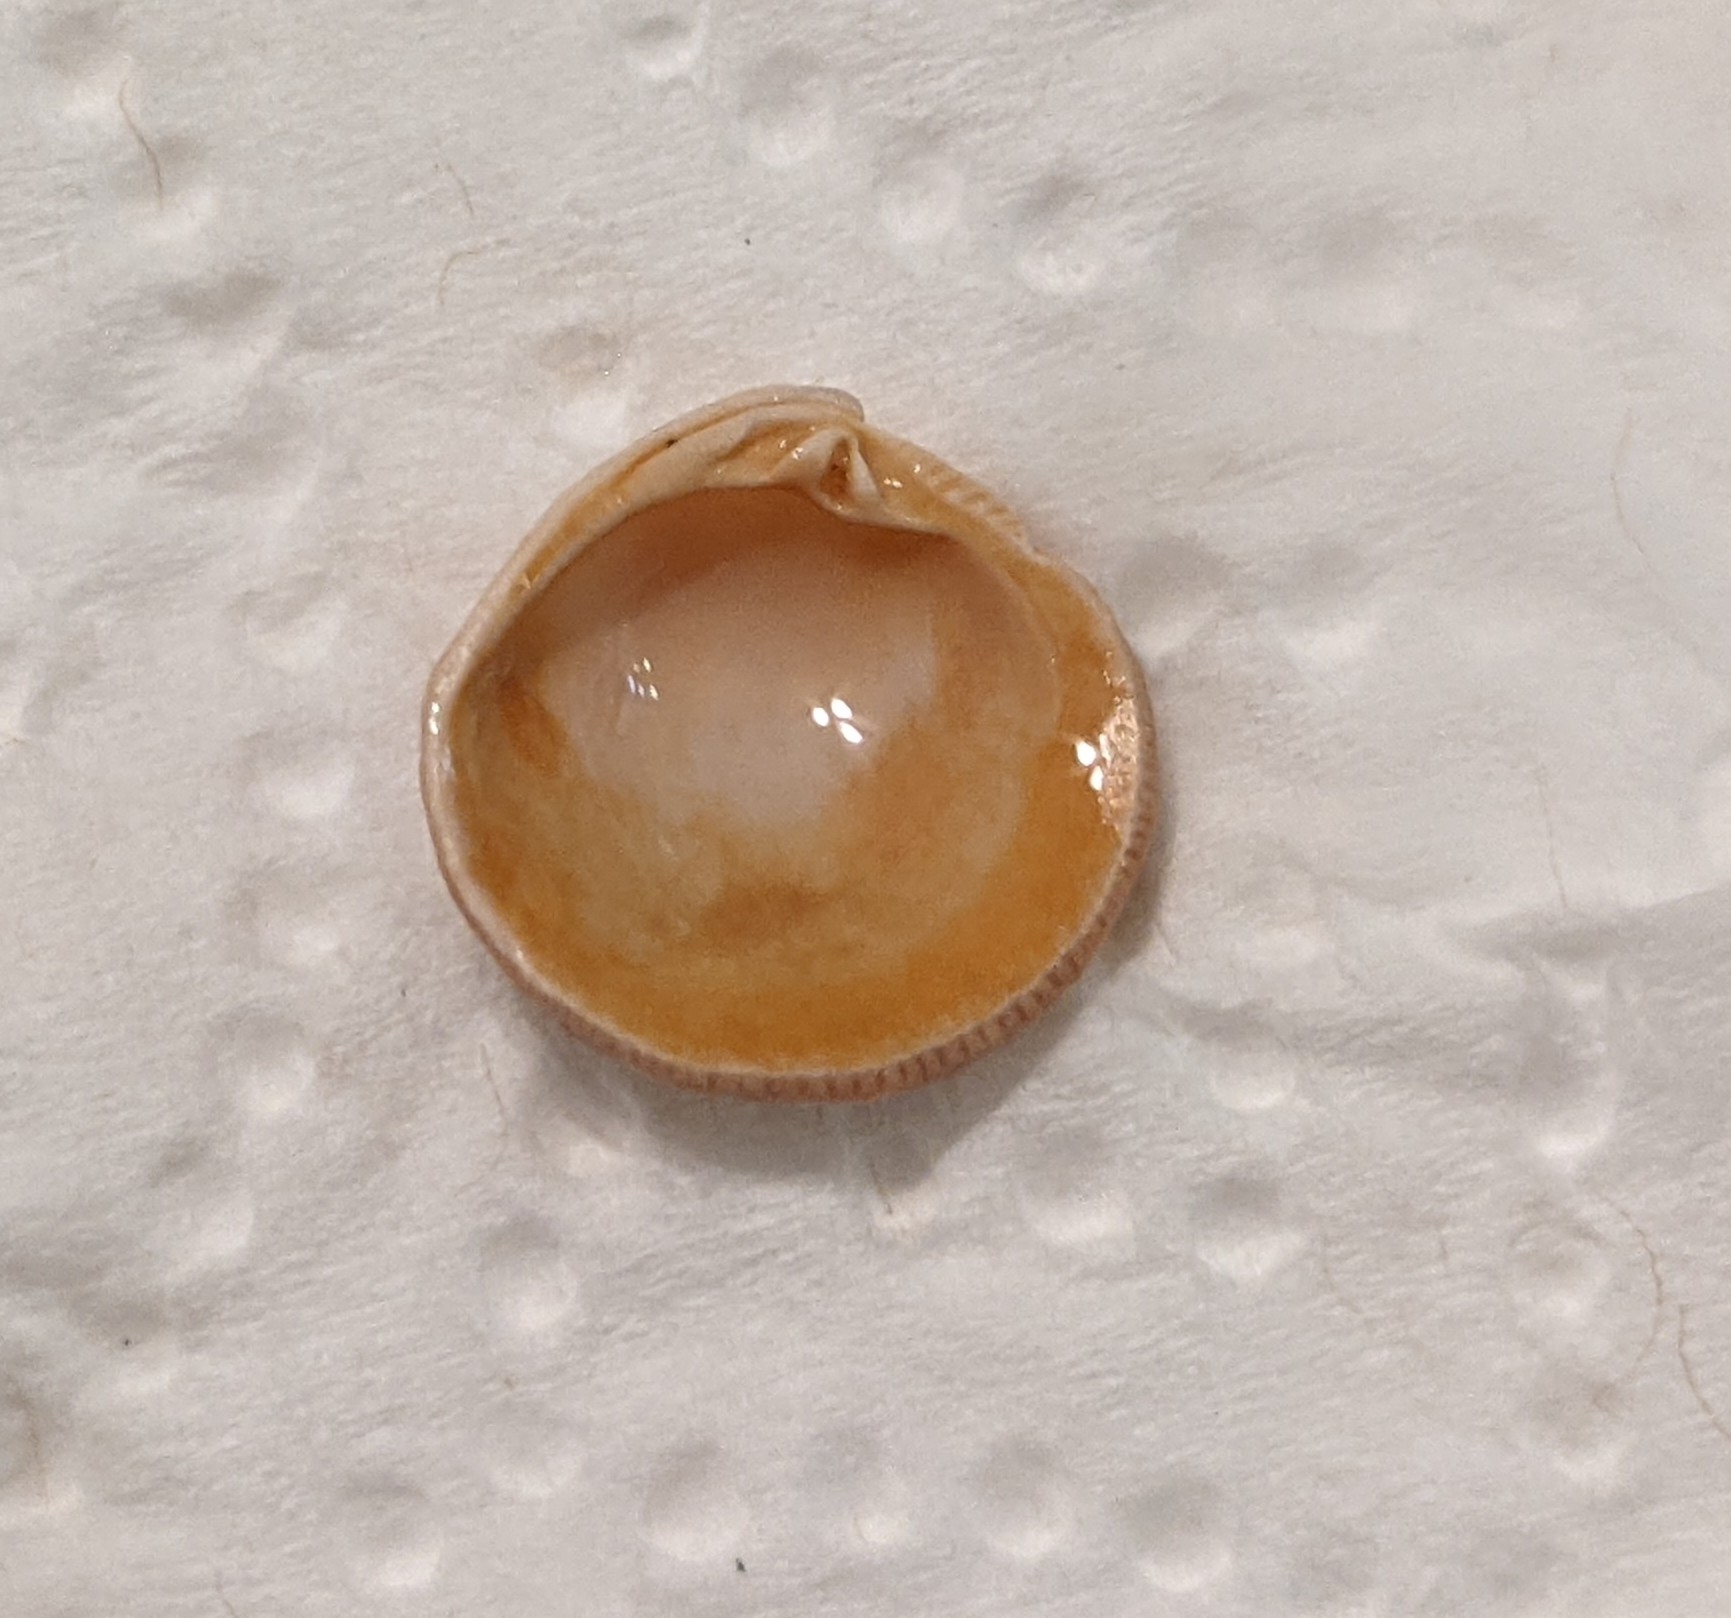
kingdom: Animalia
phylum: Mollusca
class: Bivalvia
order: Venerida
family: Veneridae
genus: Chionopsis
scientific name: Chionopsis intapurpurea
